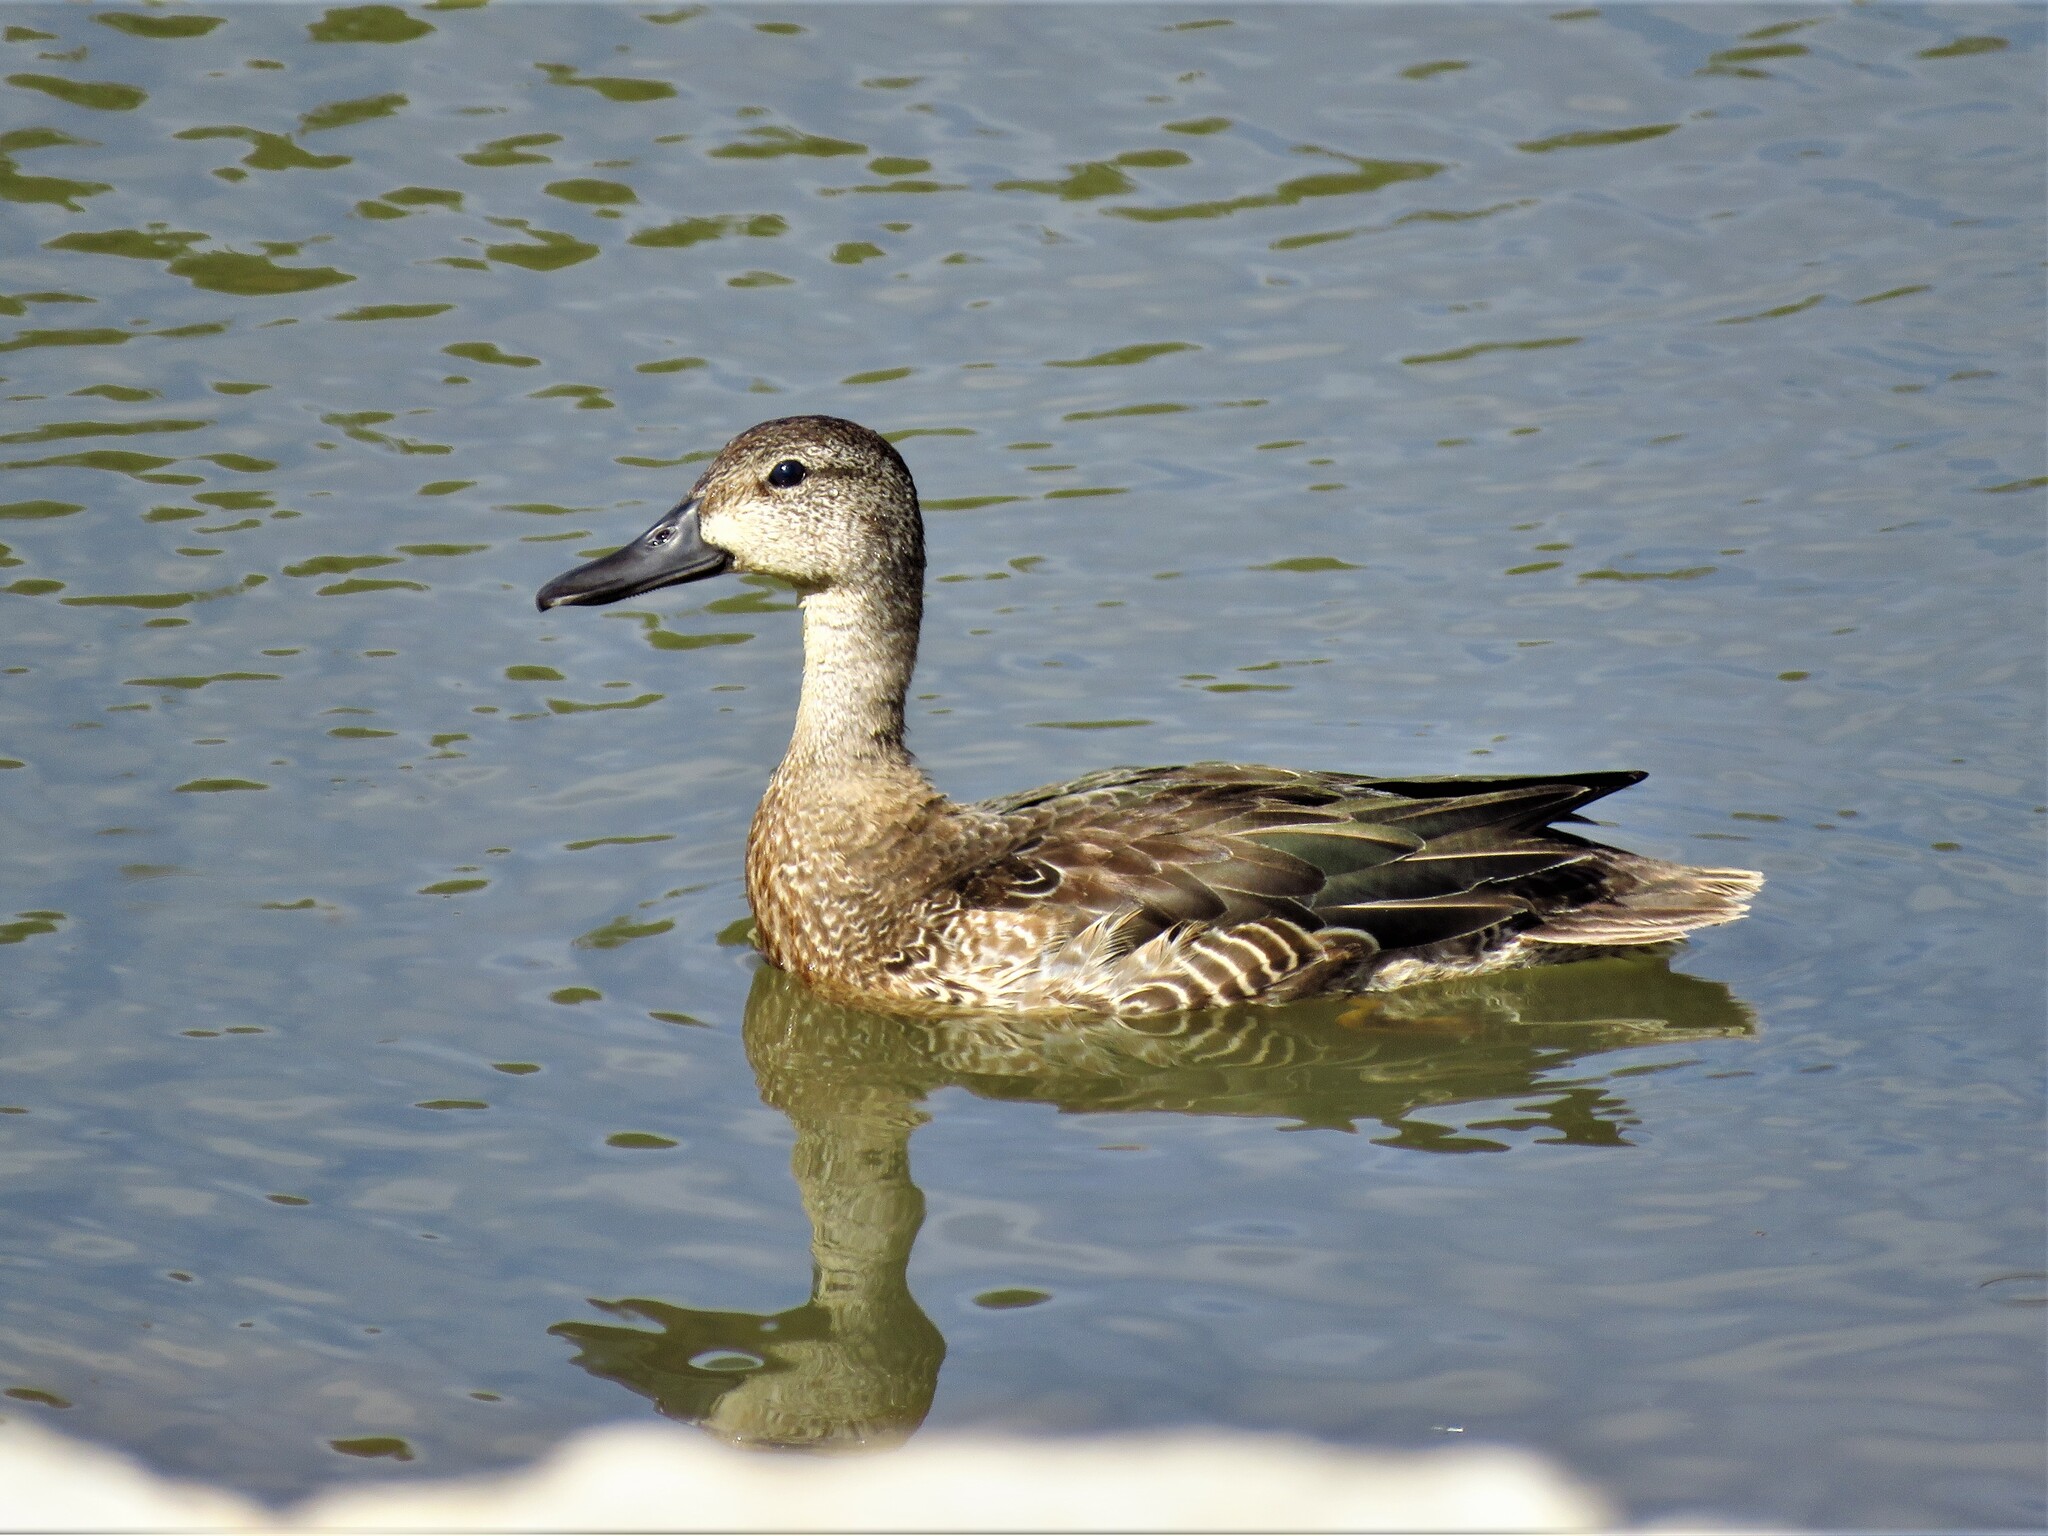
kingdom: Animalia
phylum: Chordata
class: Aves
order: Anseriformes
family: Anatidae
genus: Spatula
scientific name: Spatula discors
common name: Blue-winged teal
